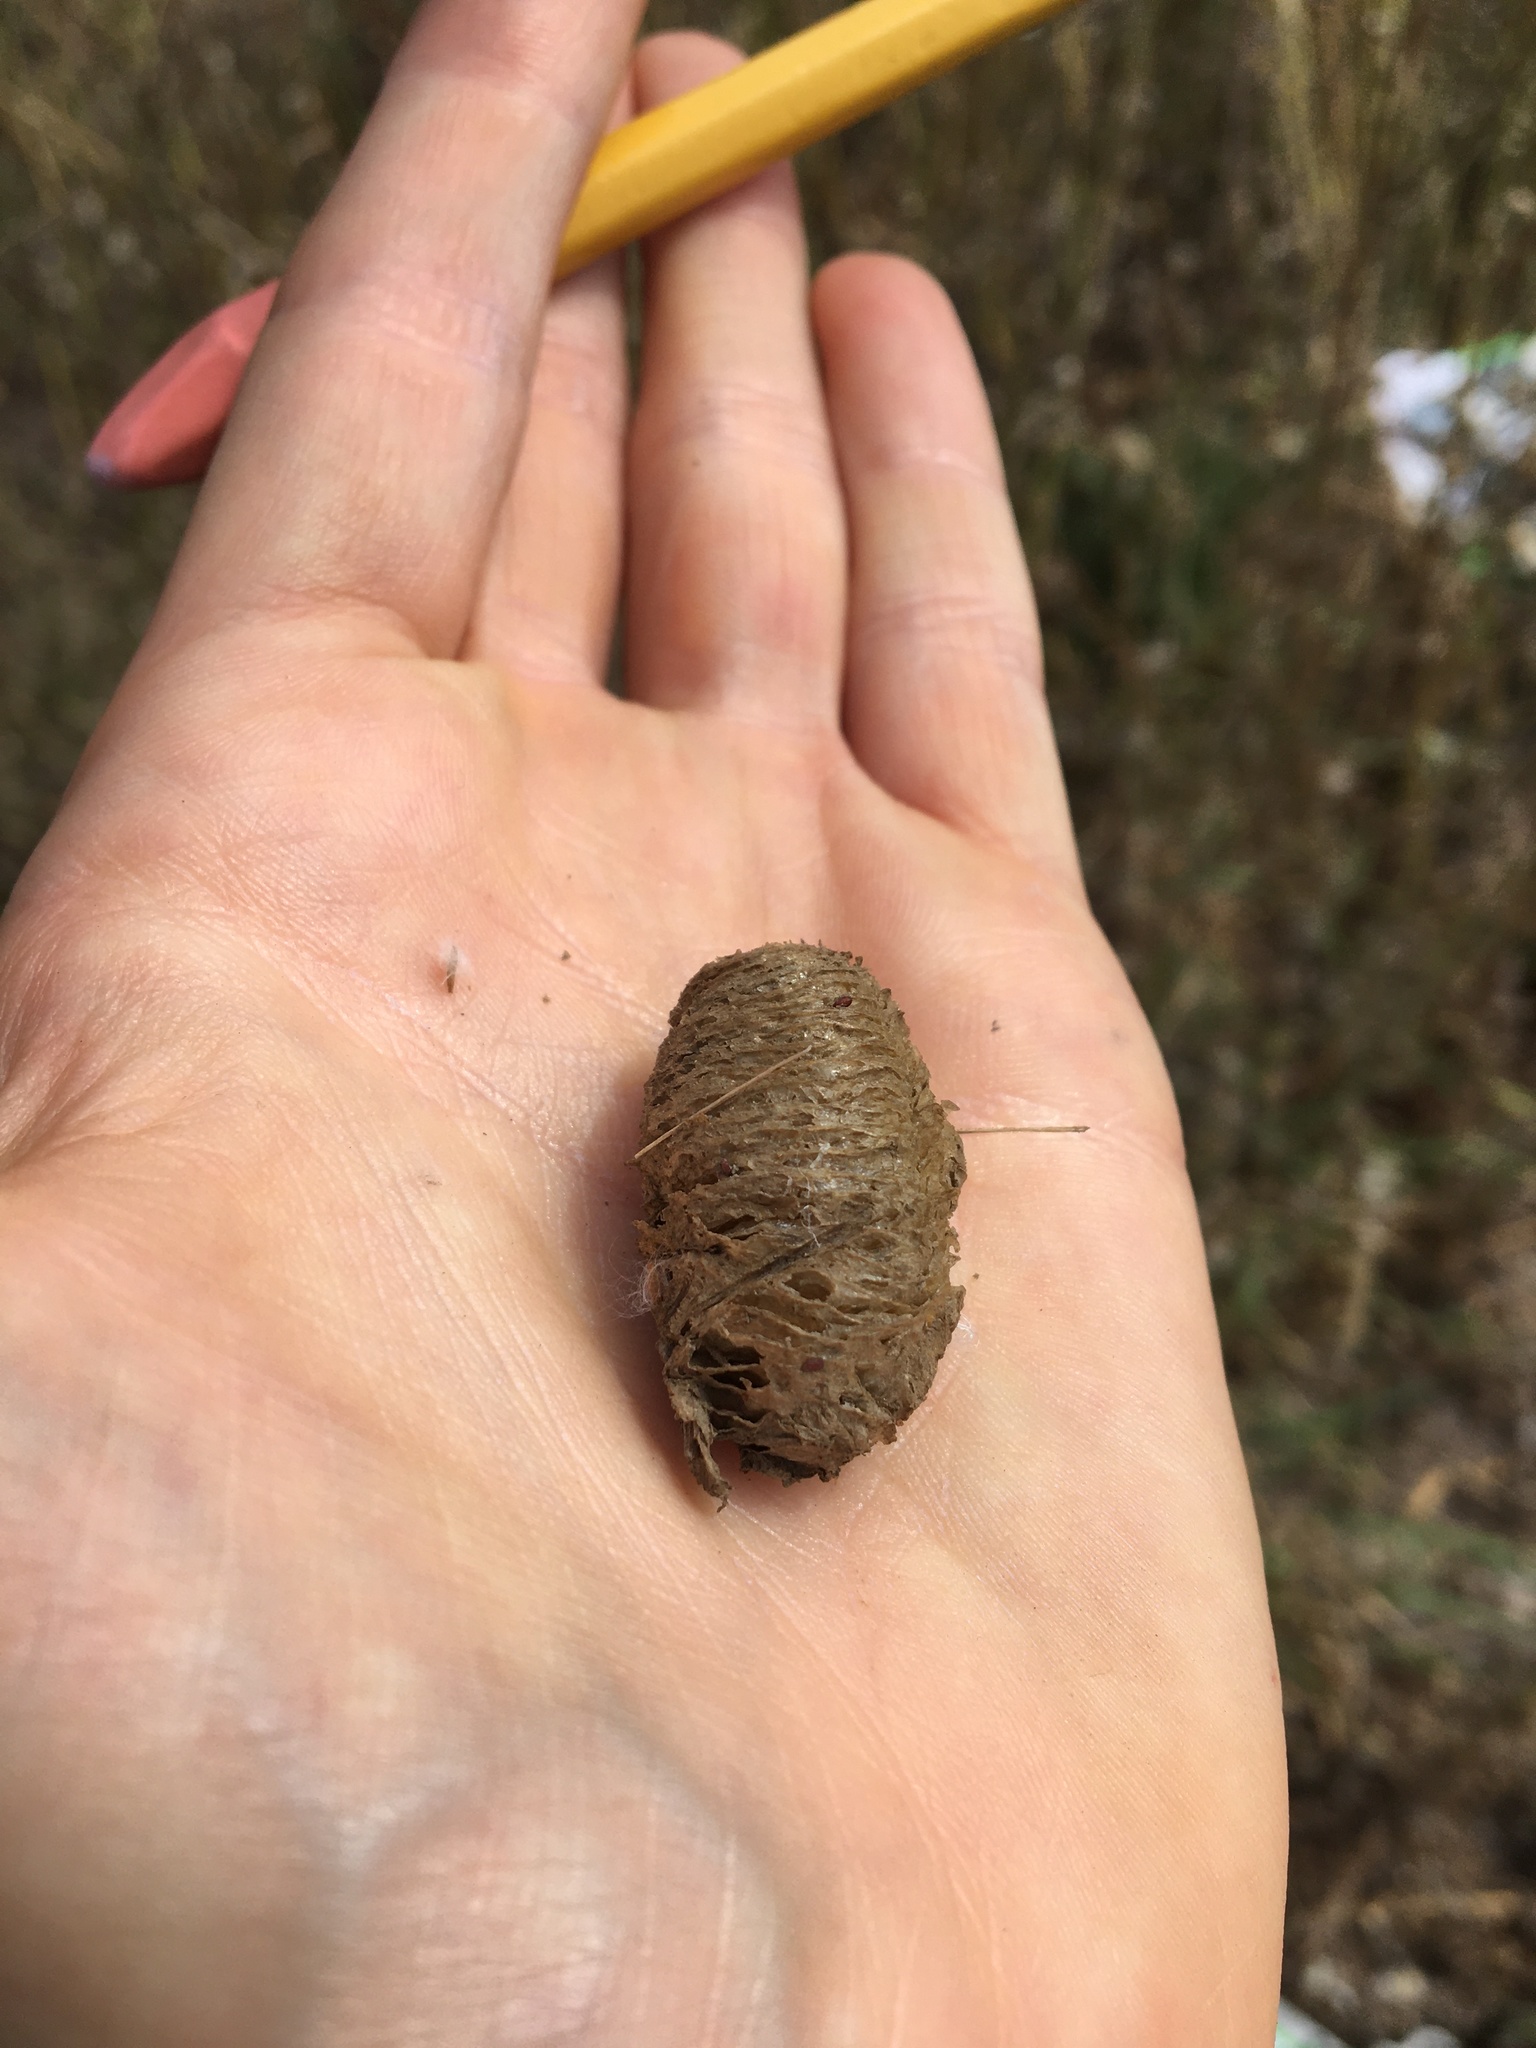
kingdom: Animalia
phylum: Arthropoda
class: Insecta
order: Mantodea
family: Mantidae
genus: Mantis
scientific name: Mantis religiosa
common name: Praying mantis
